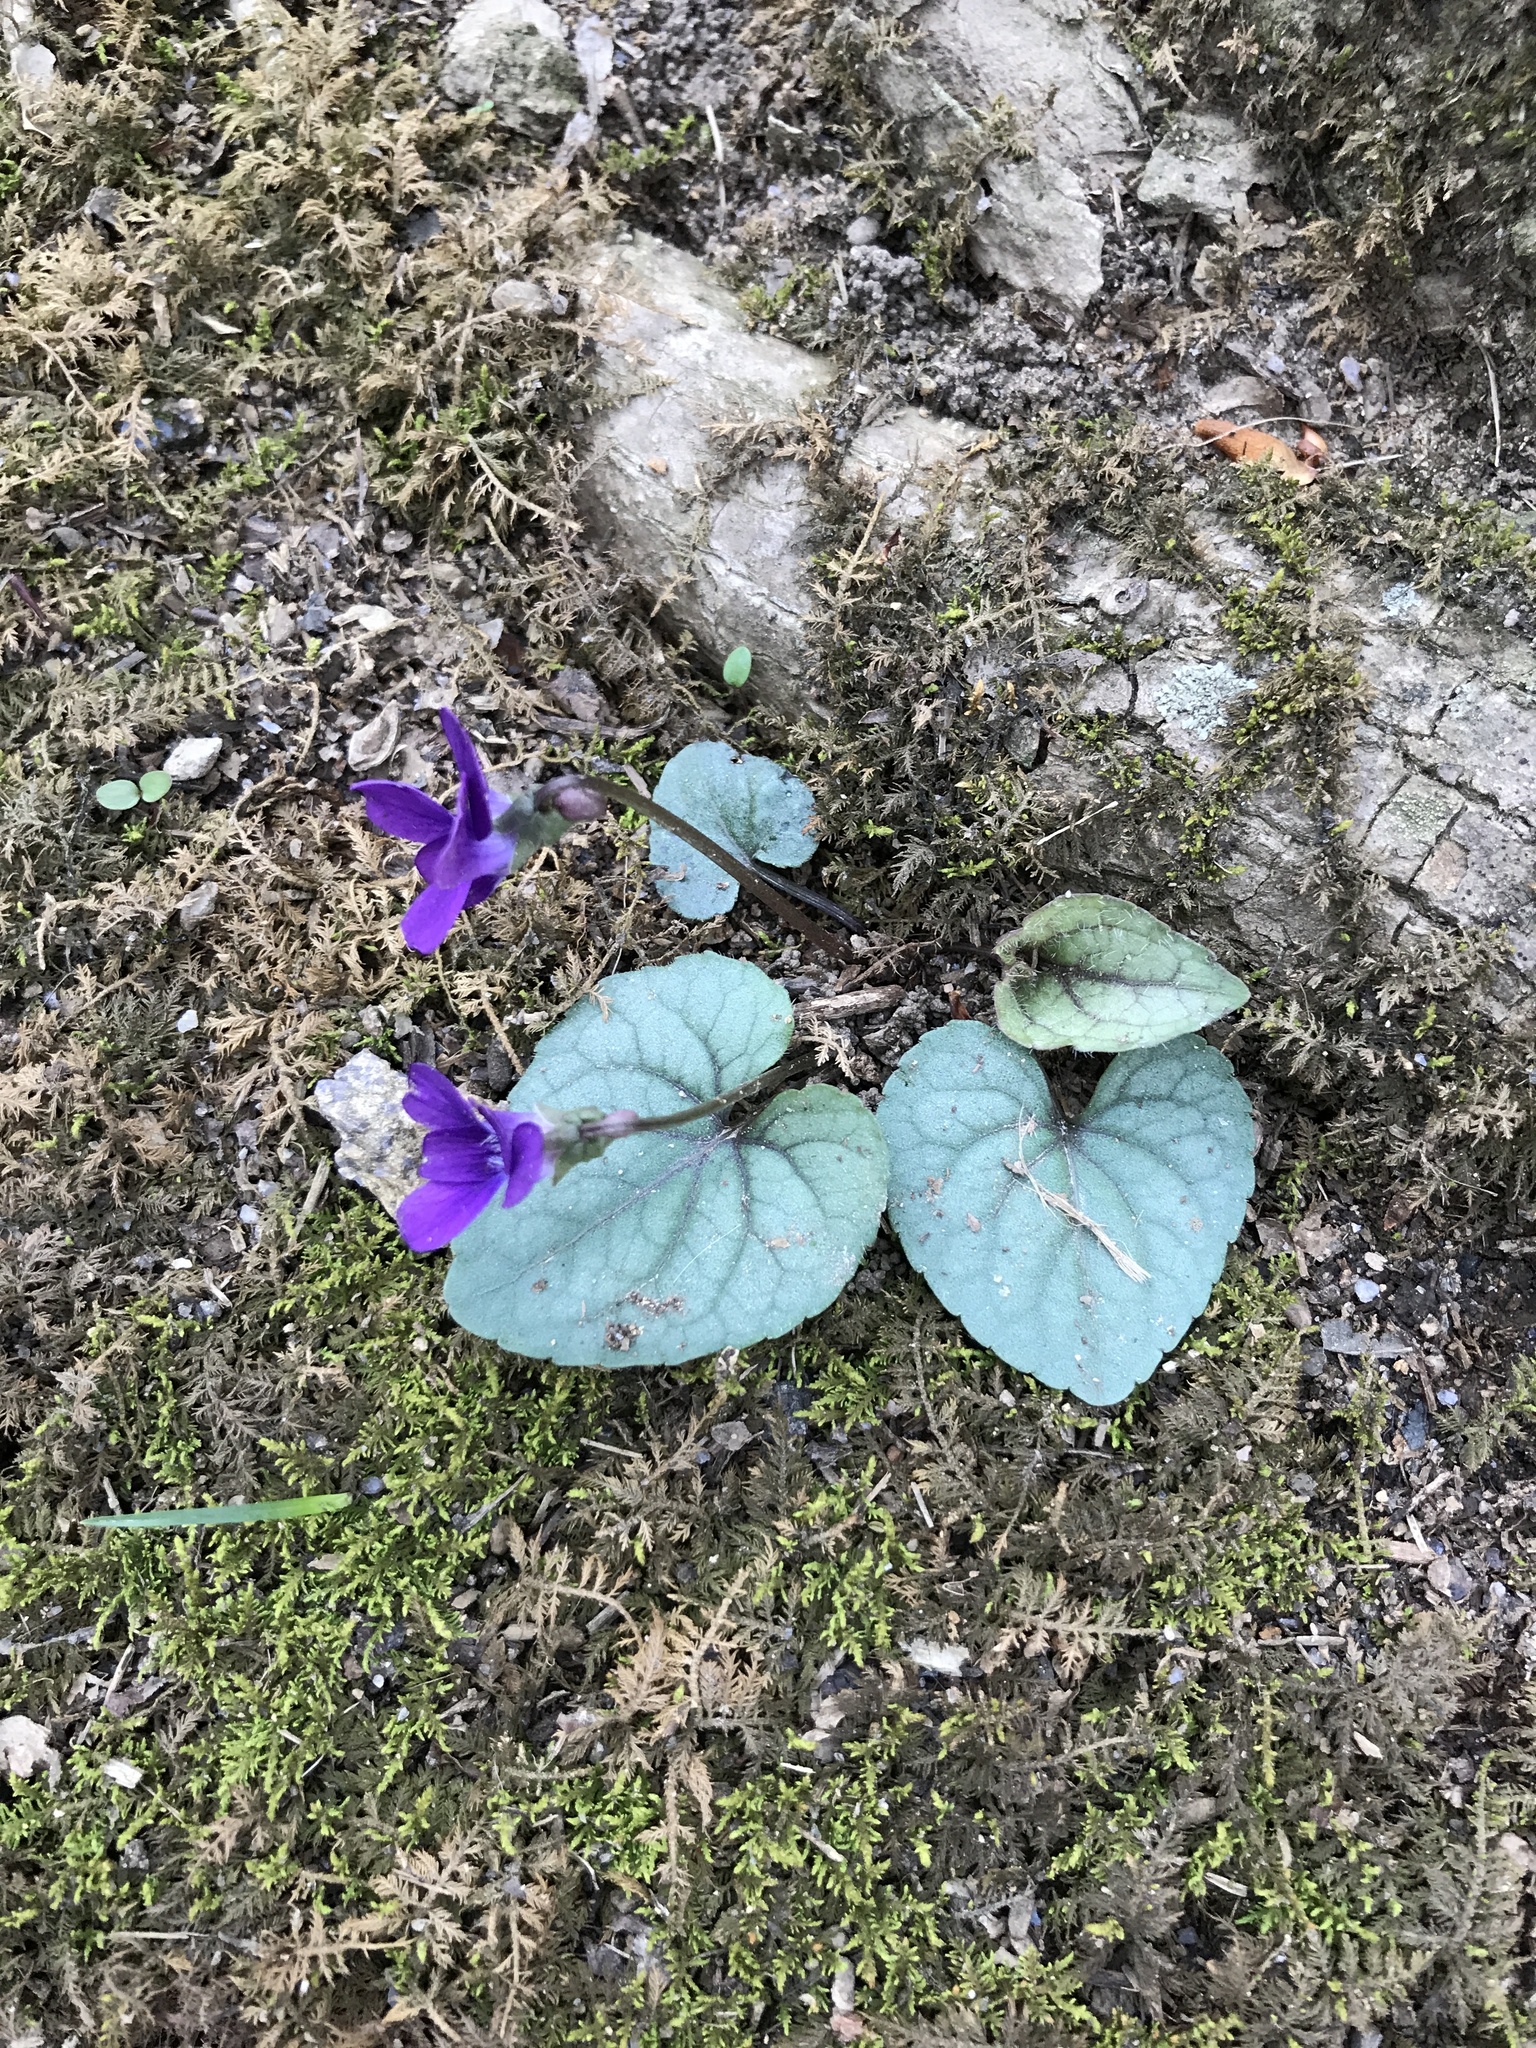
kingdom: Plantae
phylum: Tracheophyta
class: Magnoliopsida
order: Malpighiales
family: Violaceae
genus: Viola
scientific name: Viola hirsutula
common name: Southern wood violet
